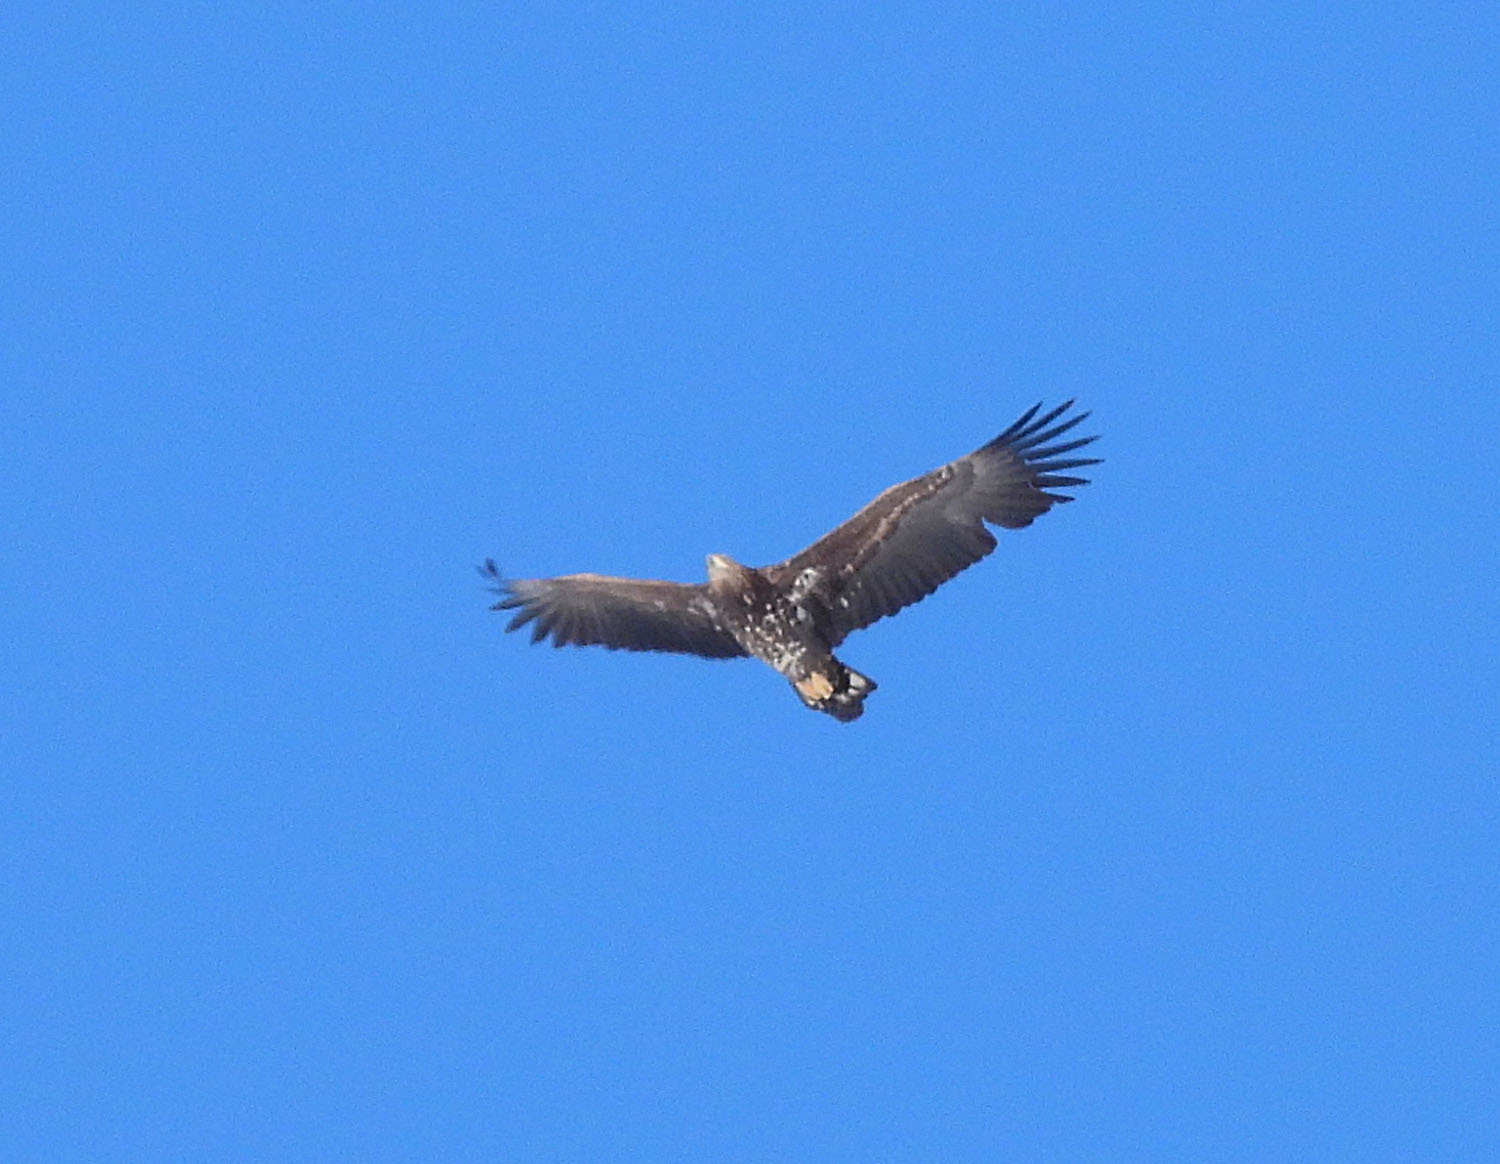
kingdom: Animalia
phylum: Chordata
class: Aves
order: Accipitriformes
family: Accipitridae
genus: Haliaeetus
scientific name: Haliaeetus albicilla
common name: White-tailed eagle
